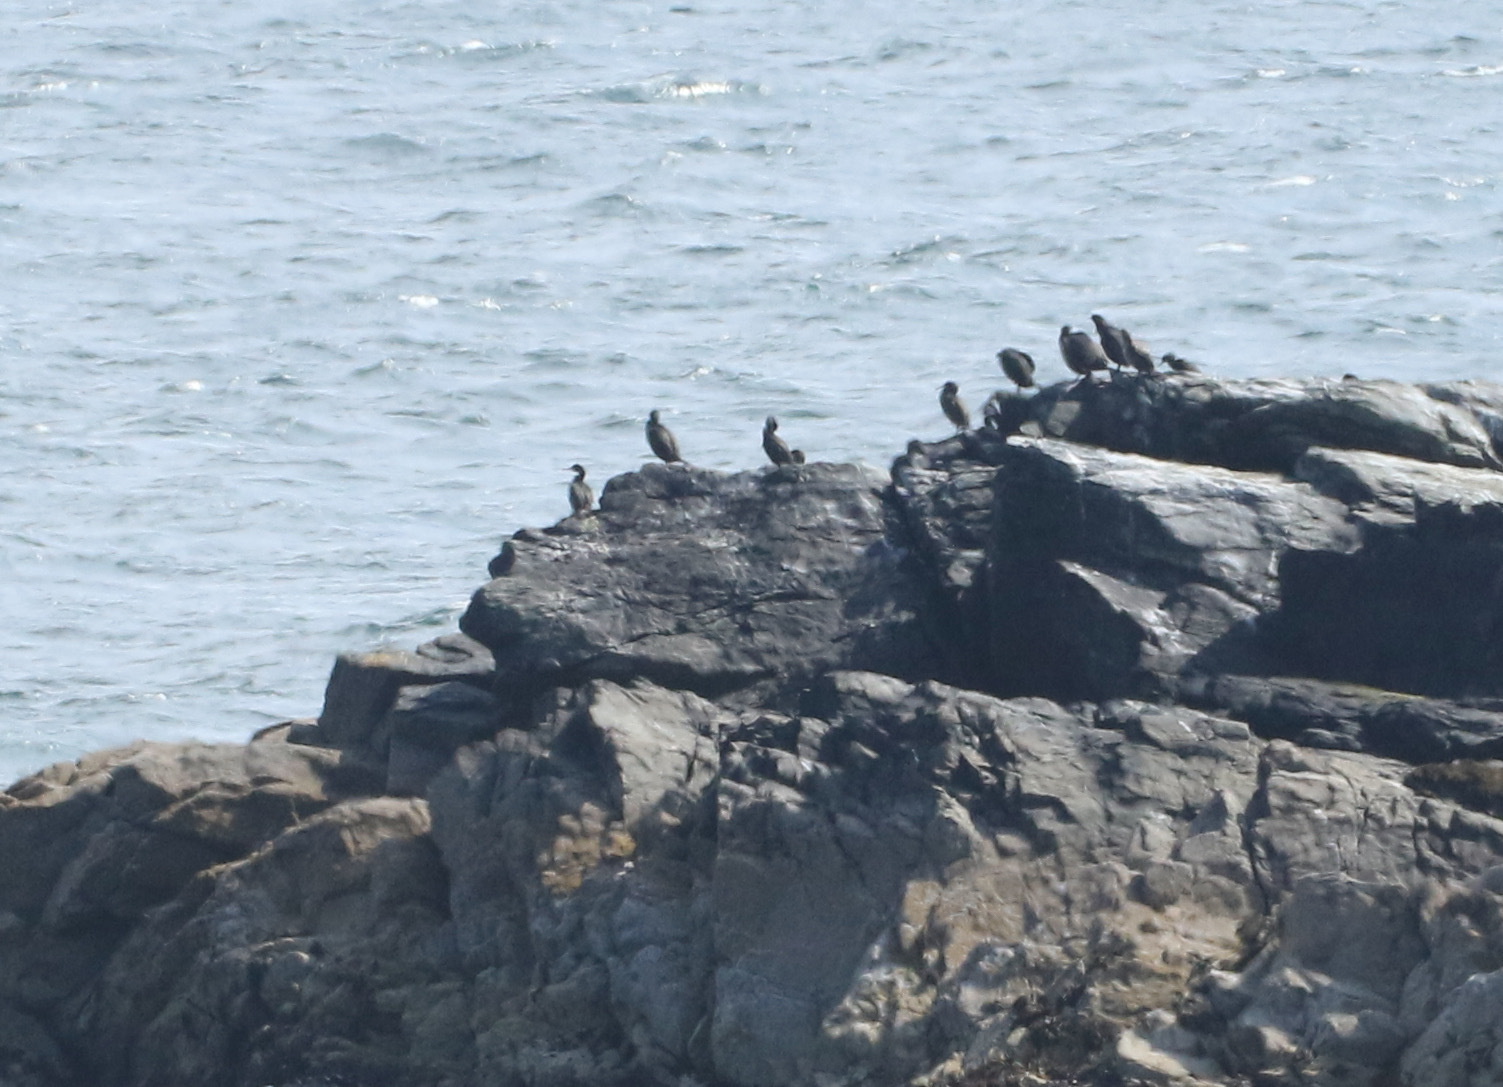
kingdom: Animalia
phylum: Chordata
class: Aves
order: Suliformes
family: Phalacrocoracidae
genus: Phalacrocorax
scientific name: Phalacrocorax aristotelis
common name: European shag
